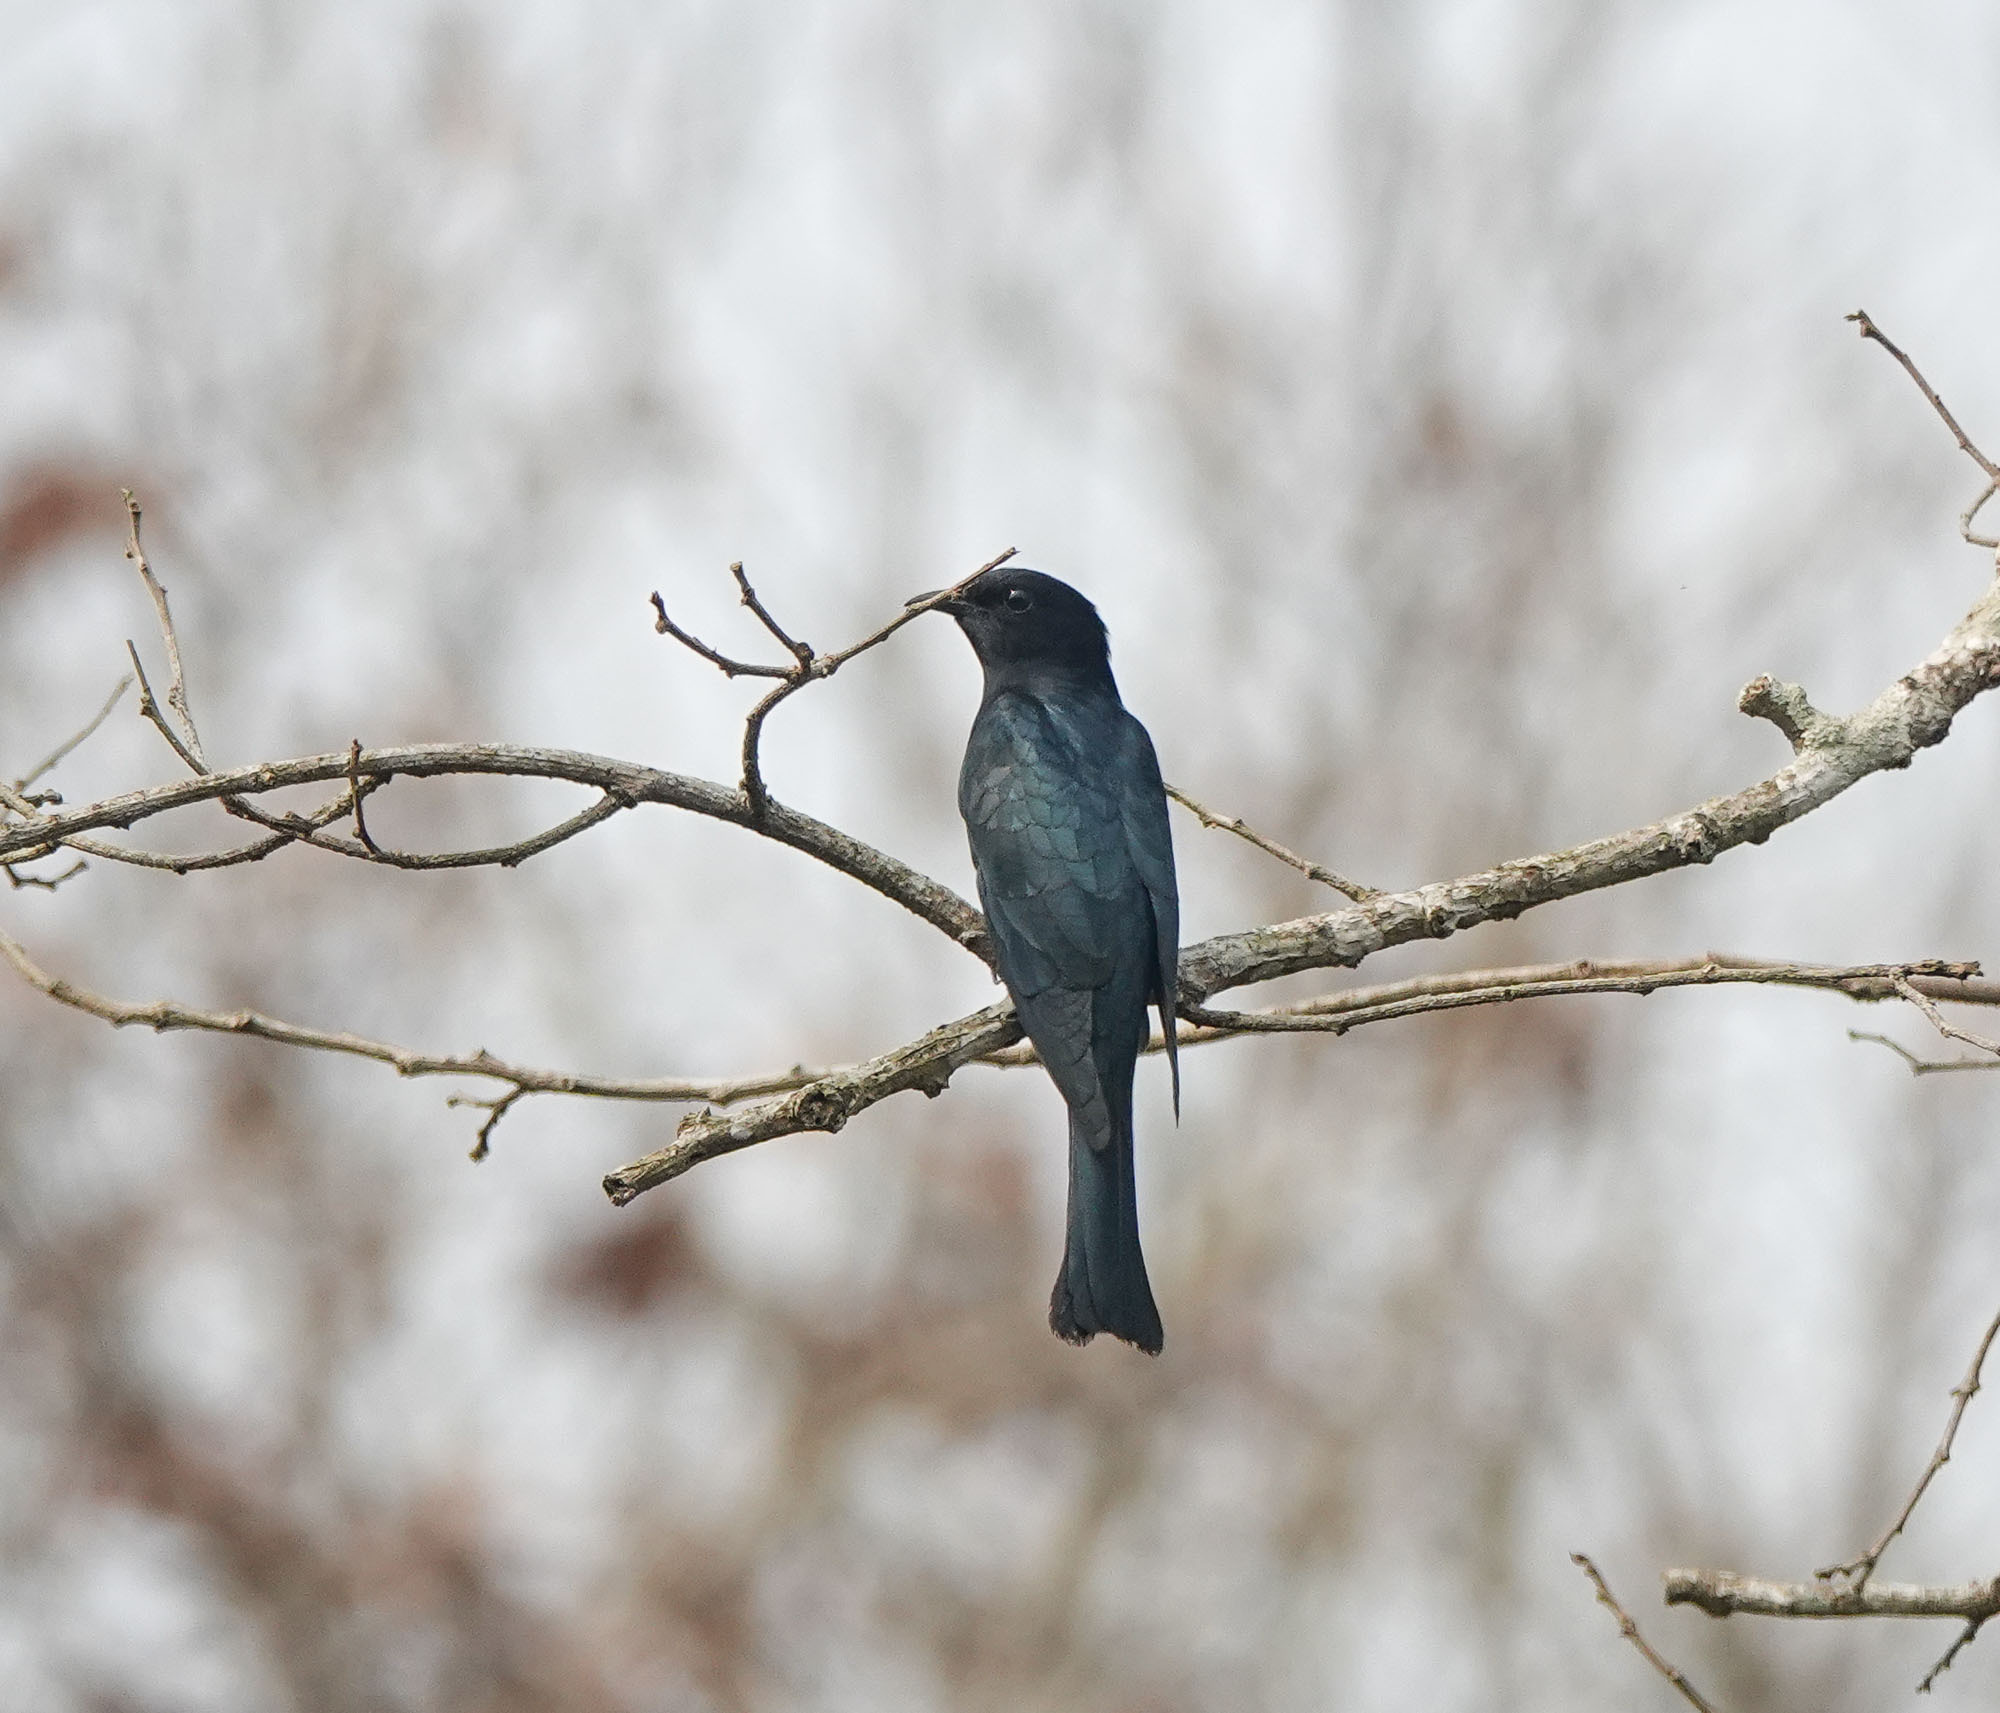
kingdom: Animalia
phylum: Chordata
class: Aves
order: Cuculiformes
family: Cuculidae
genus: Surniculus
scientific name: Surniculus lugubris
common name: Square-tailed drongo-cuckoo
